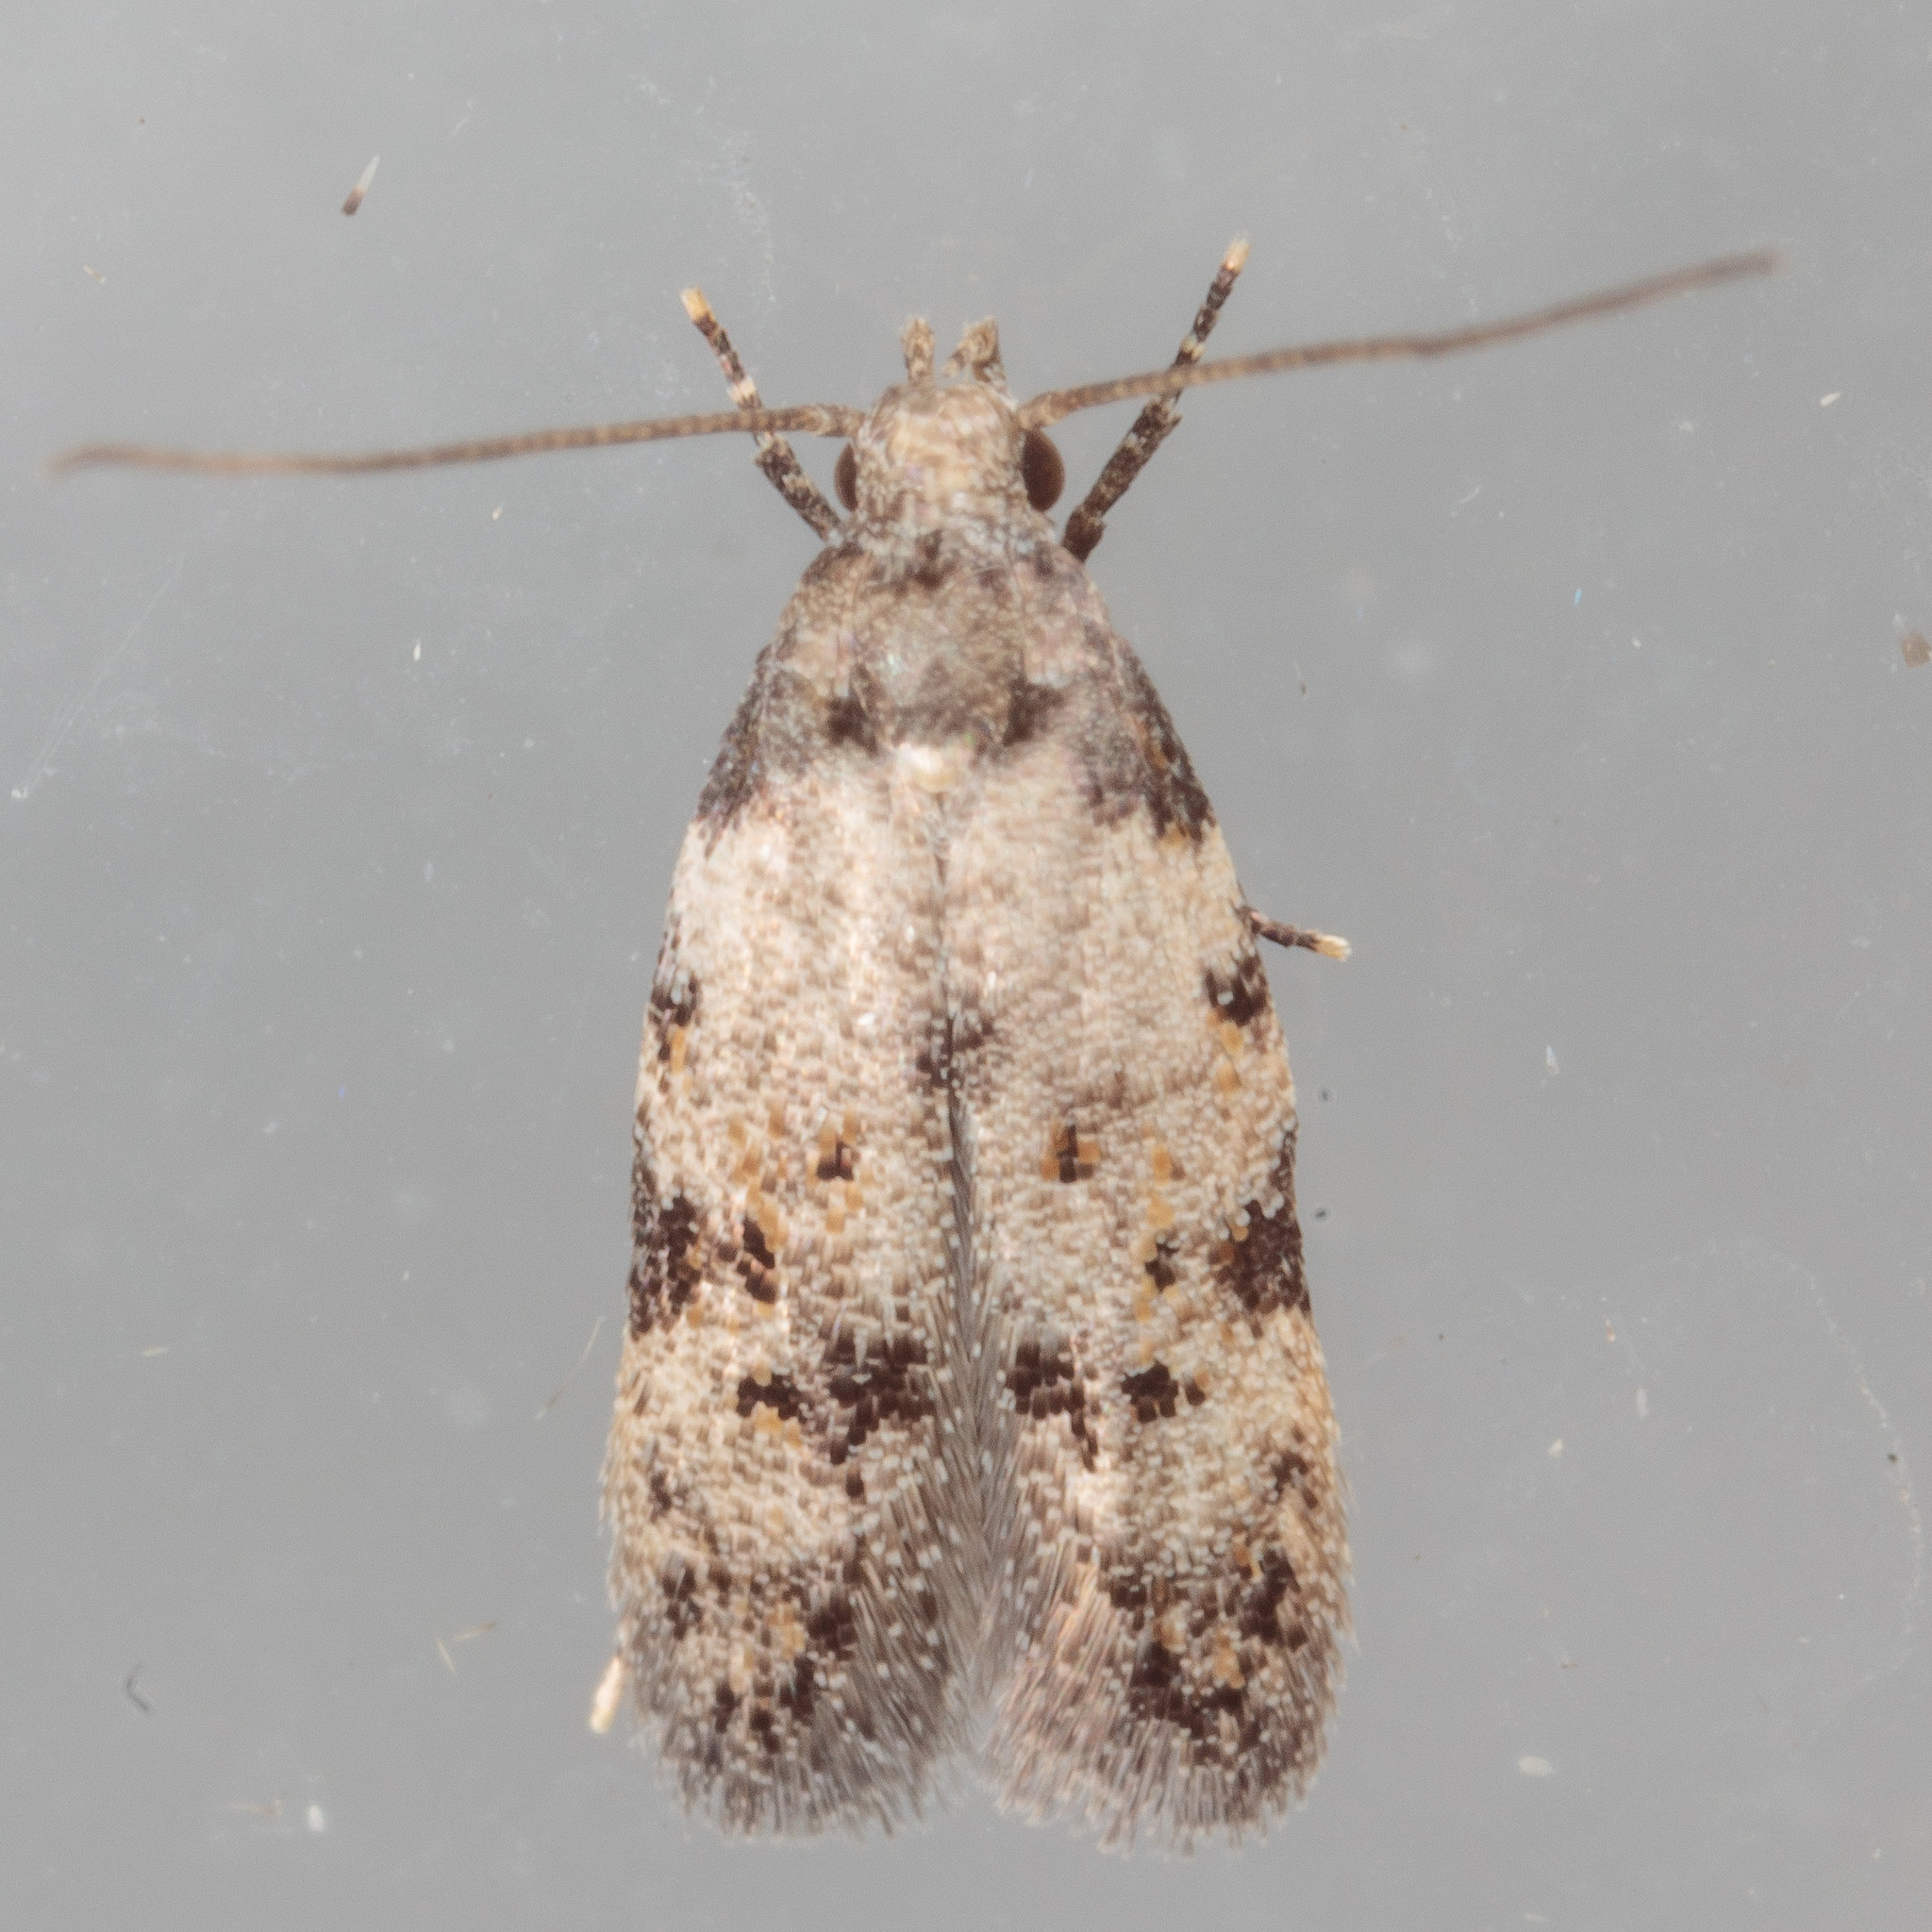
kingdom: Animalia
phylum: Arthropoda
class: Insecta
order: Lepidoptera
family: Autostichidae
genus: Taygete
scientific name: Taygete attributella
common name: Triangle-marked twirler moth
